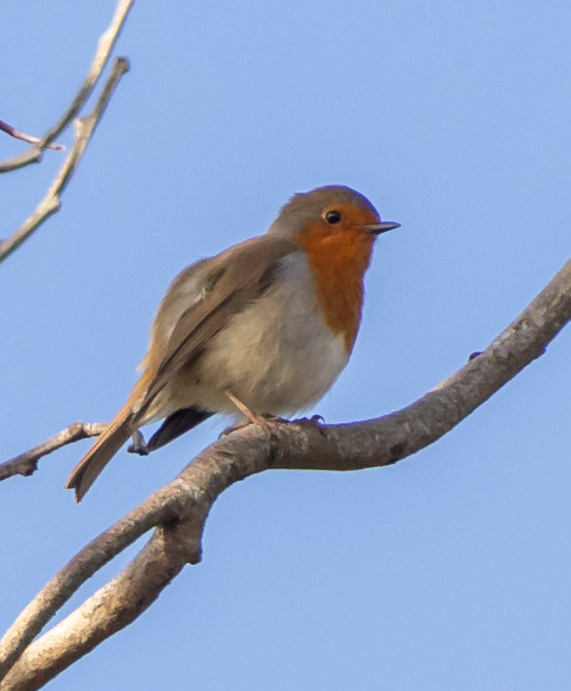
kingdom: Animalia
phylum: Chordata
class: Aves
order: Passeriformes
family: Muscicapidae
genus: Erithacus
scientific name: Erithacus rubecula
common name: European robin
